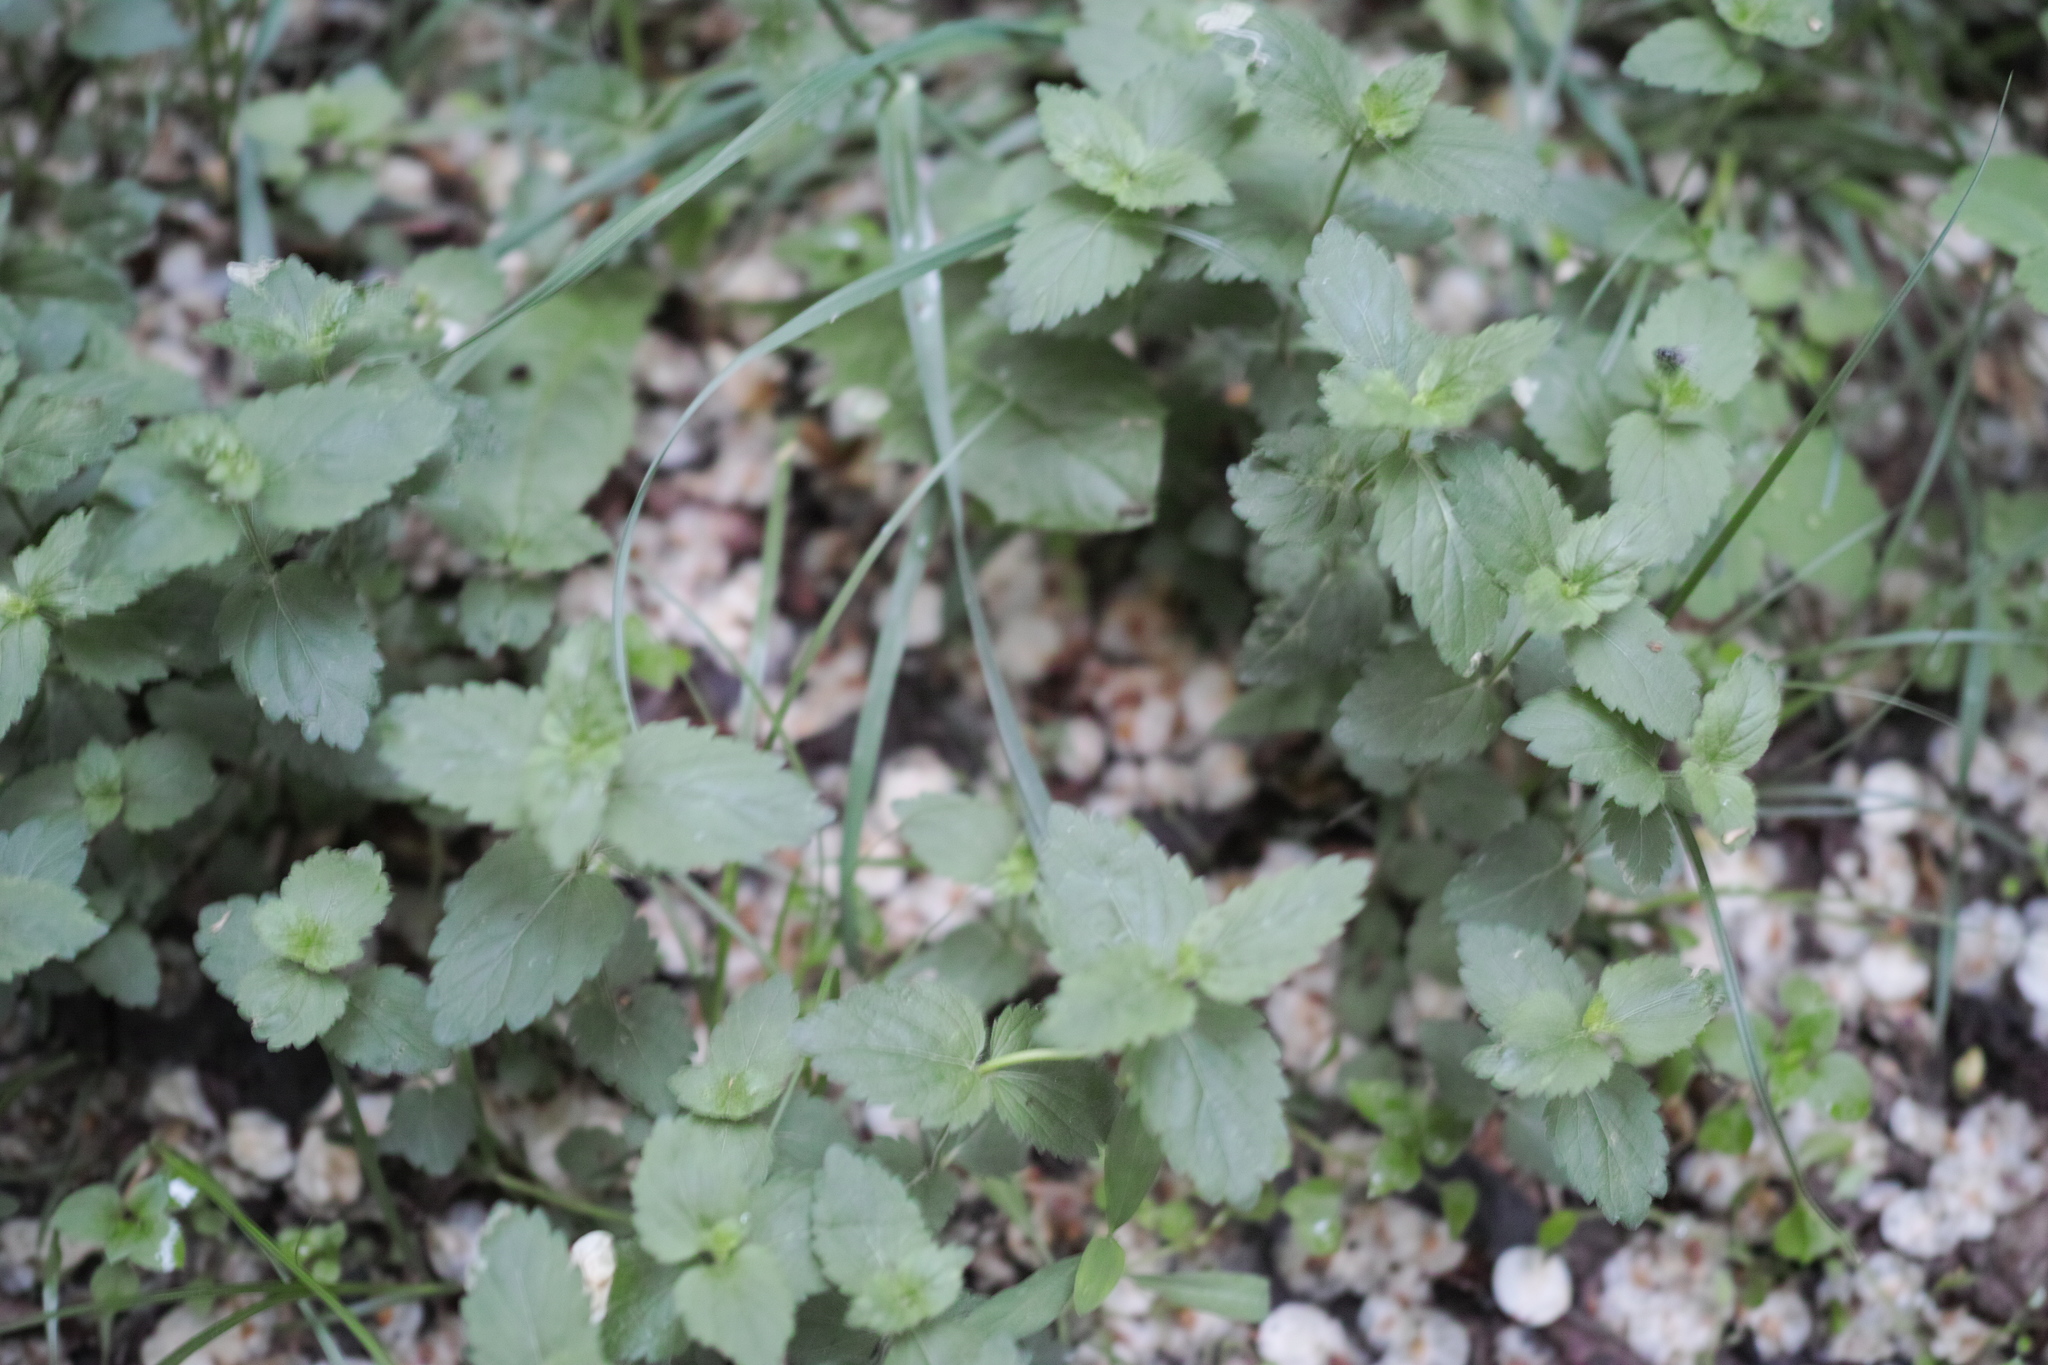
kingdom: Plantae
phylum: Tracheophyta
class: Magnoliopsida
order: Lamiales
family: Plantaginaceae
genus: Veronica
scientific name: Veronica chamaedrys
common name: Germander speedwell
